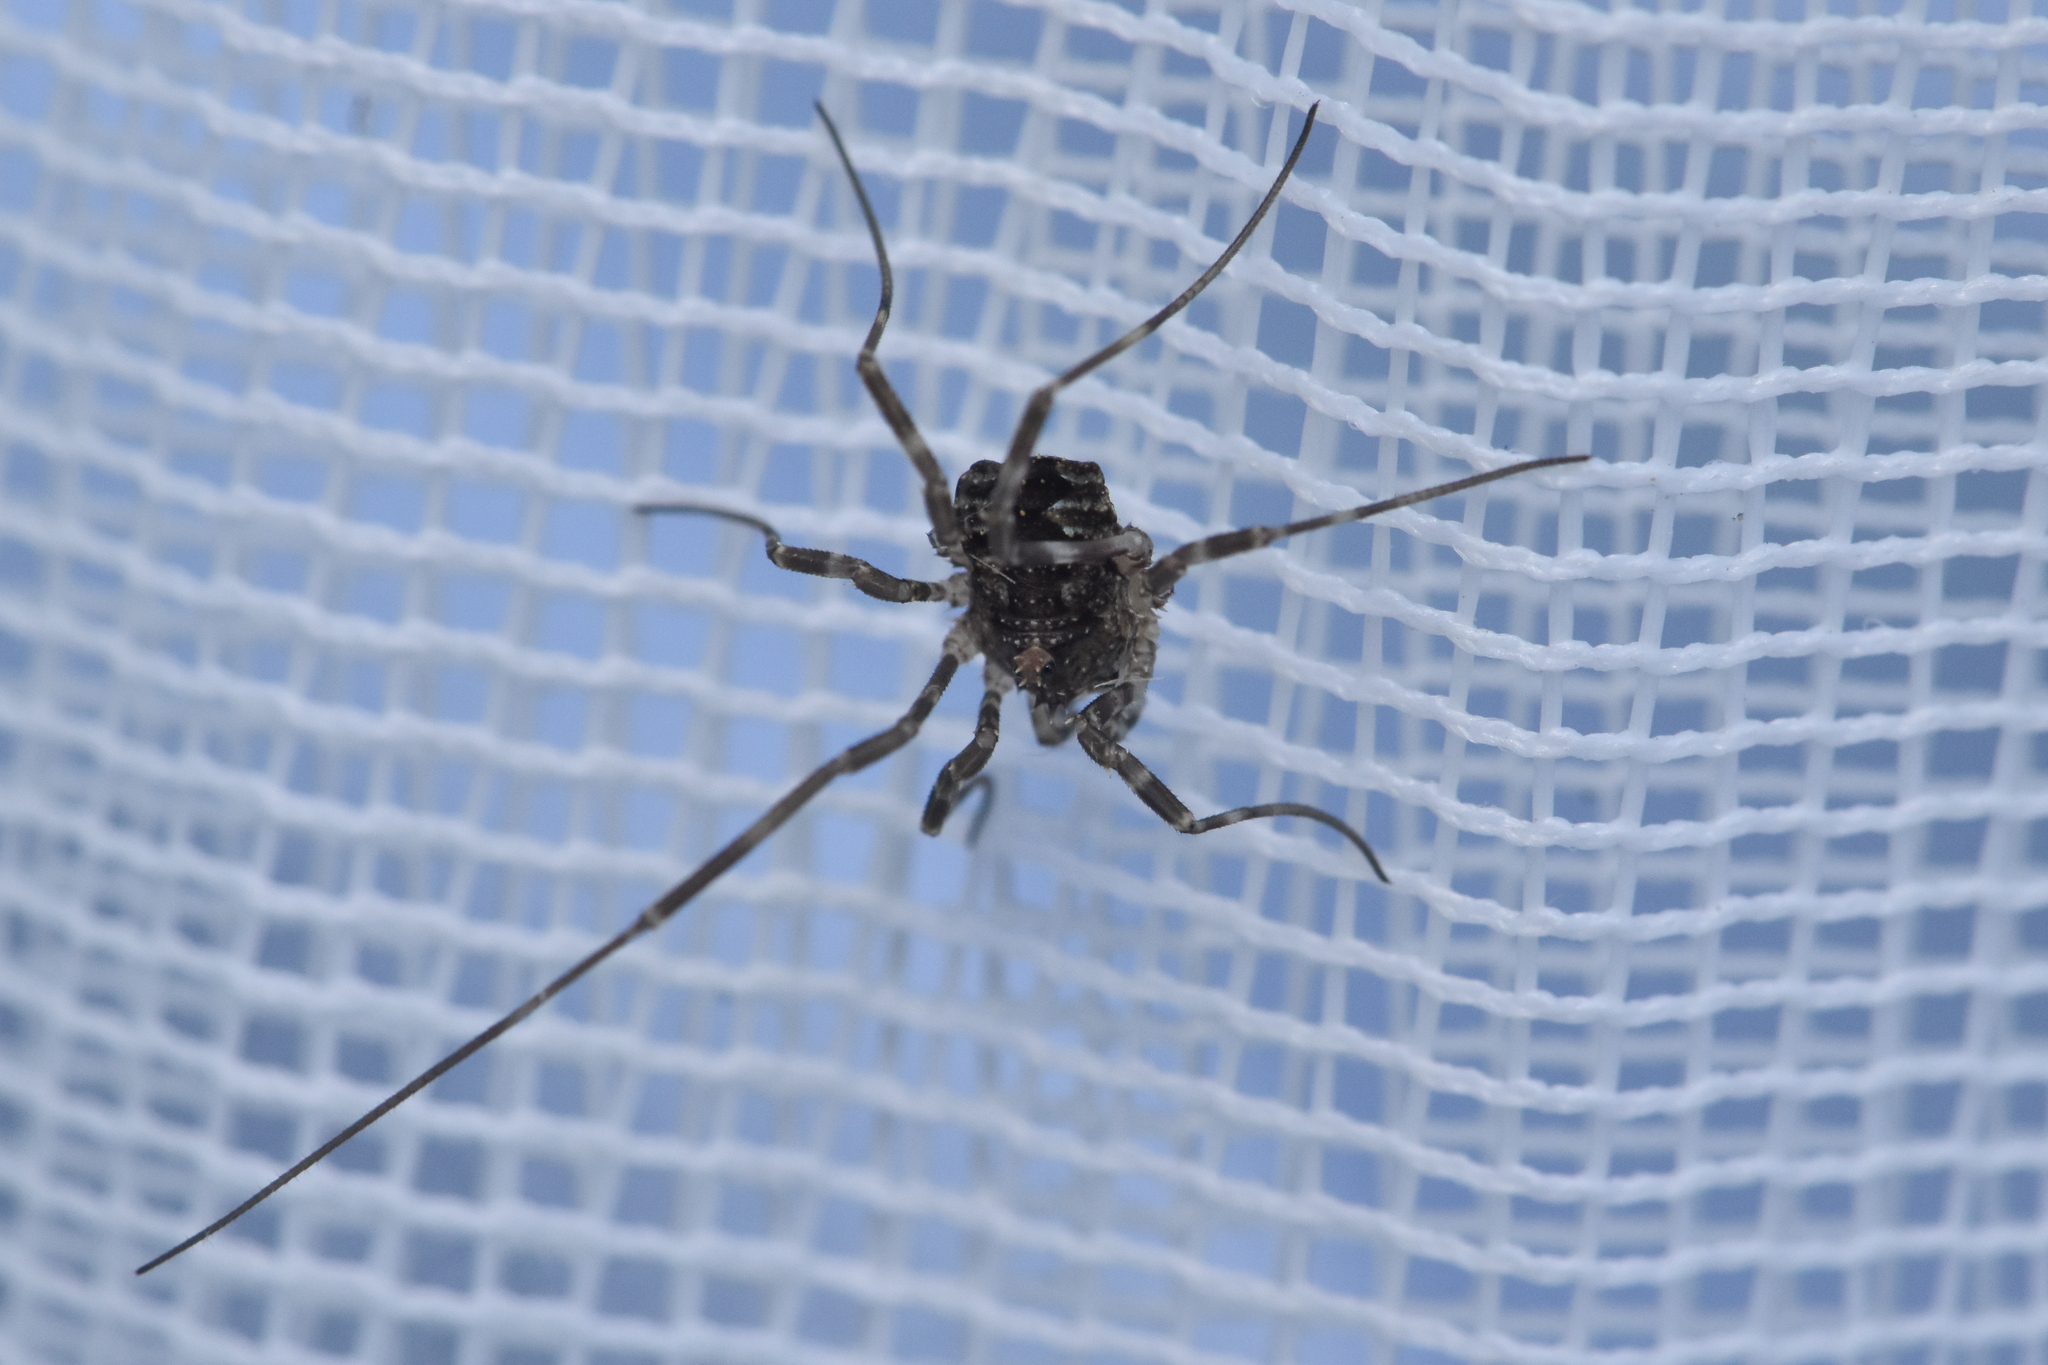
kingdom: Animalia
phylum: Arthropoda
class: Arachnida
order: Opiliones
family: Phalangiidae
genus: Odiellus
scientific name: Odiellus pictus
